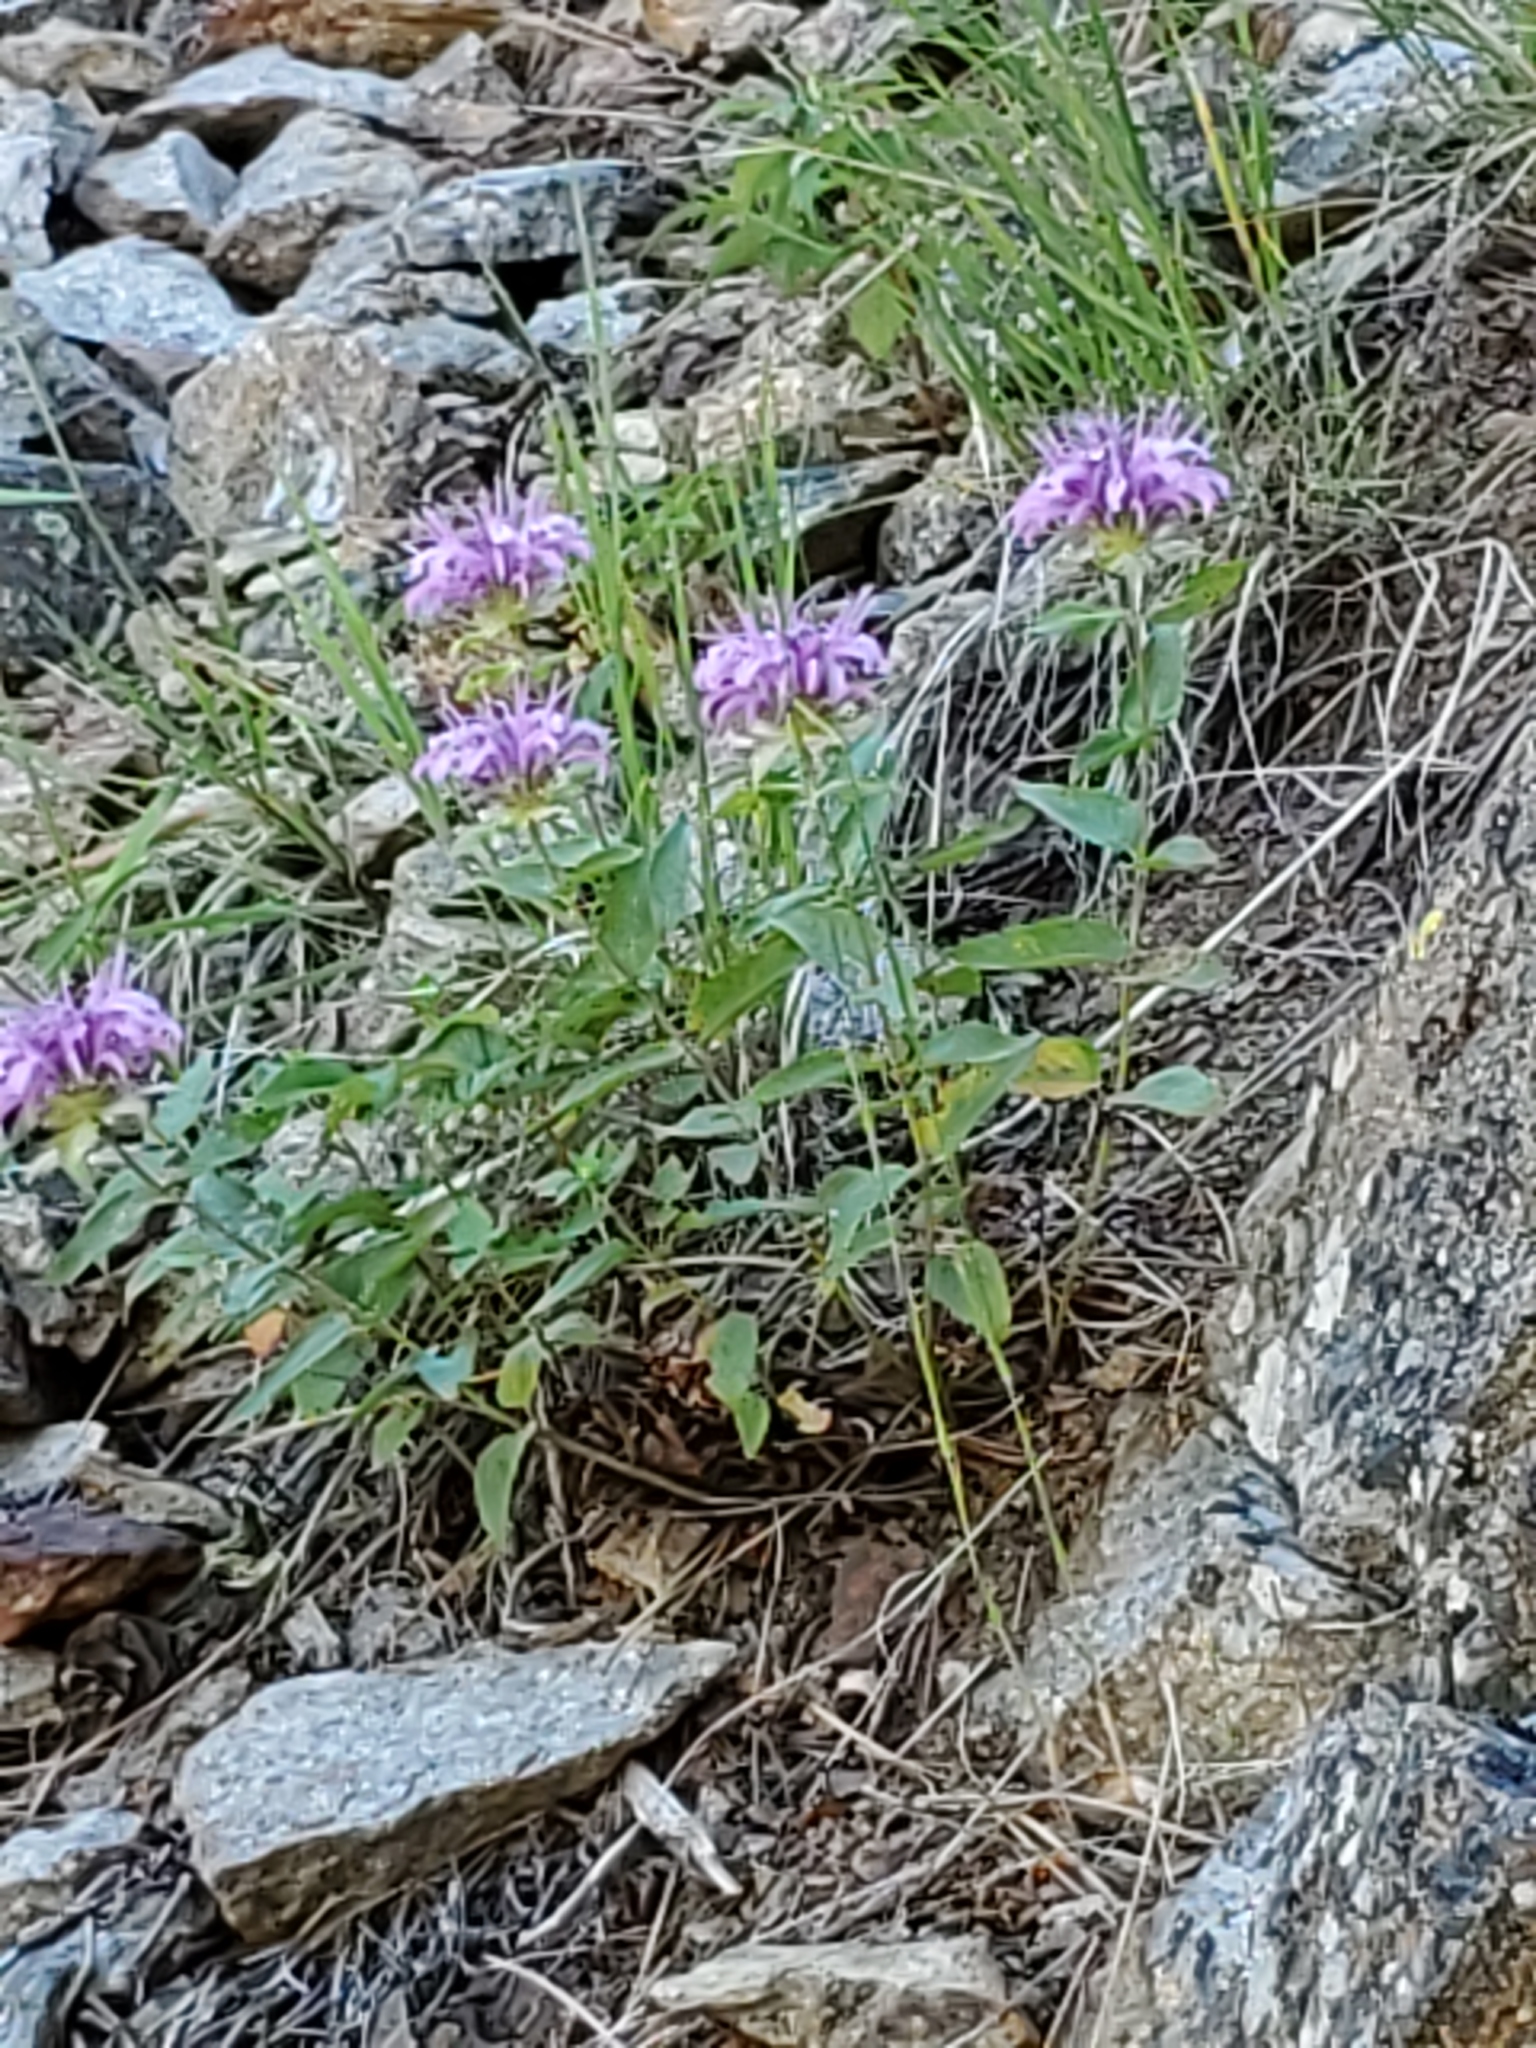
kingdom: Plantae
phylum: Tracheophyta
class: Magnoliopsida
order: Lamiales
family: Lamiaceae
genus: Monarda
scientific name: Monarda fistulosa
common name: Purple beebalm
